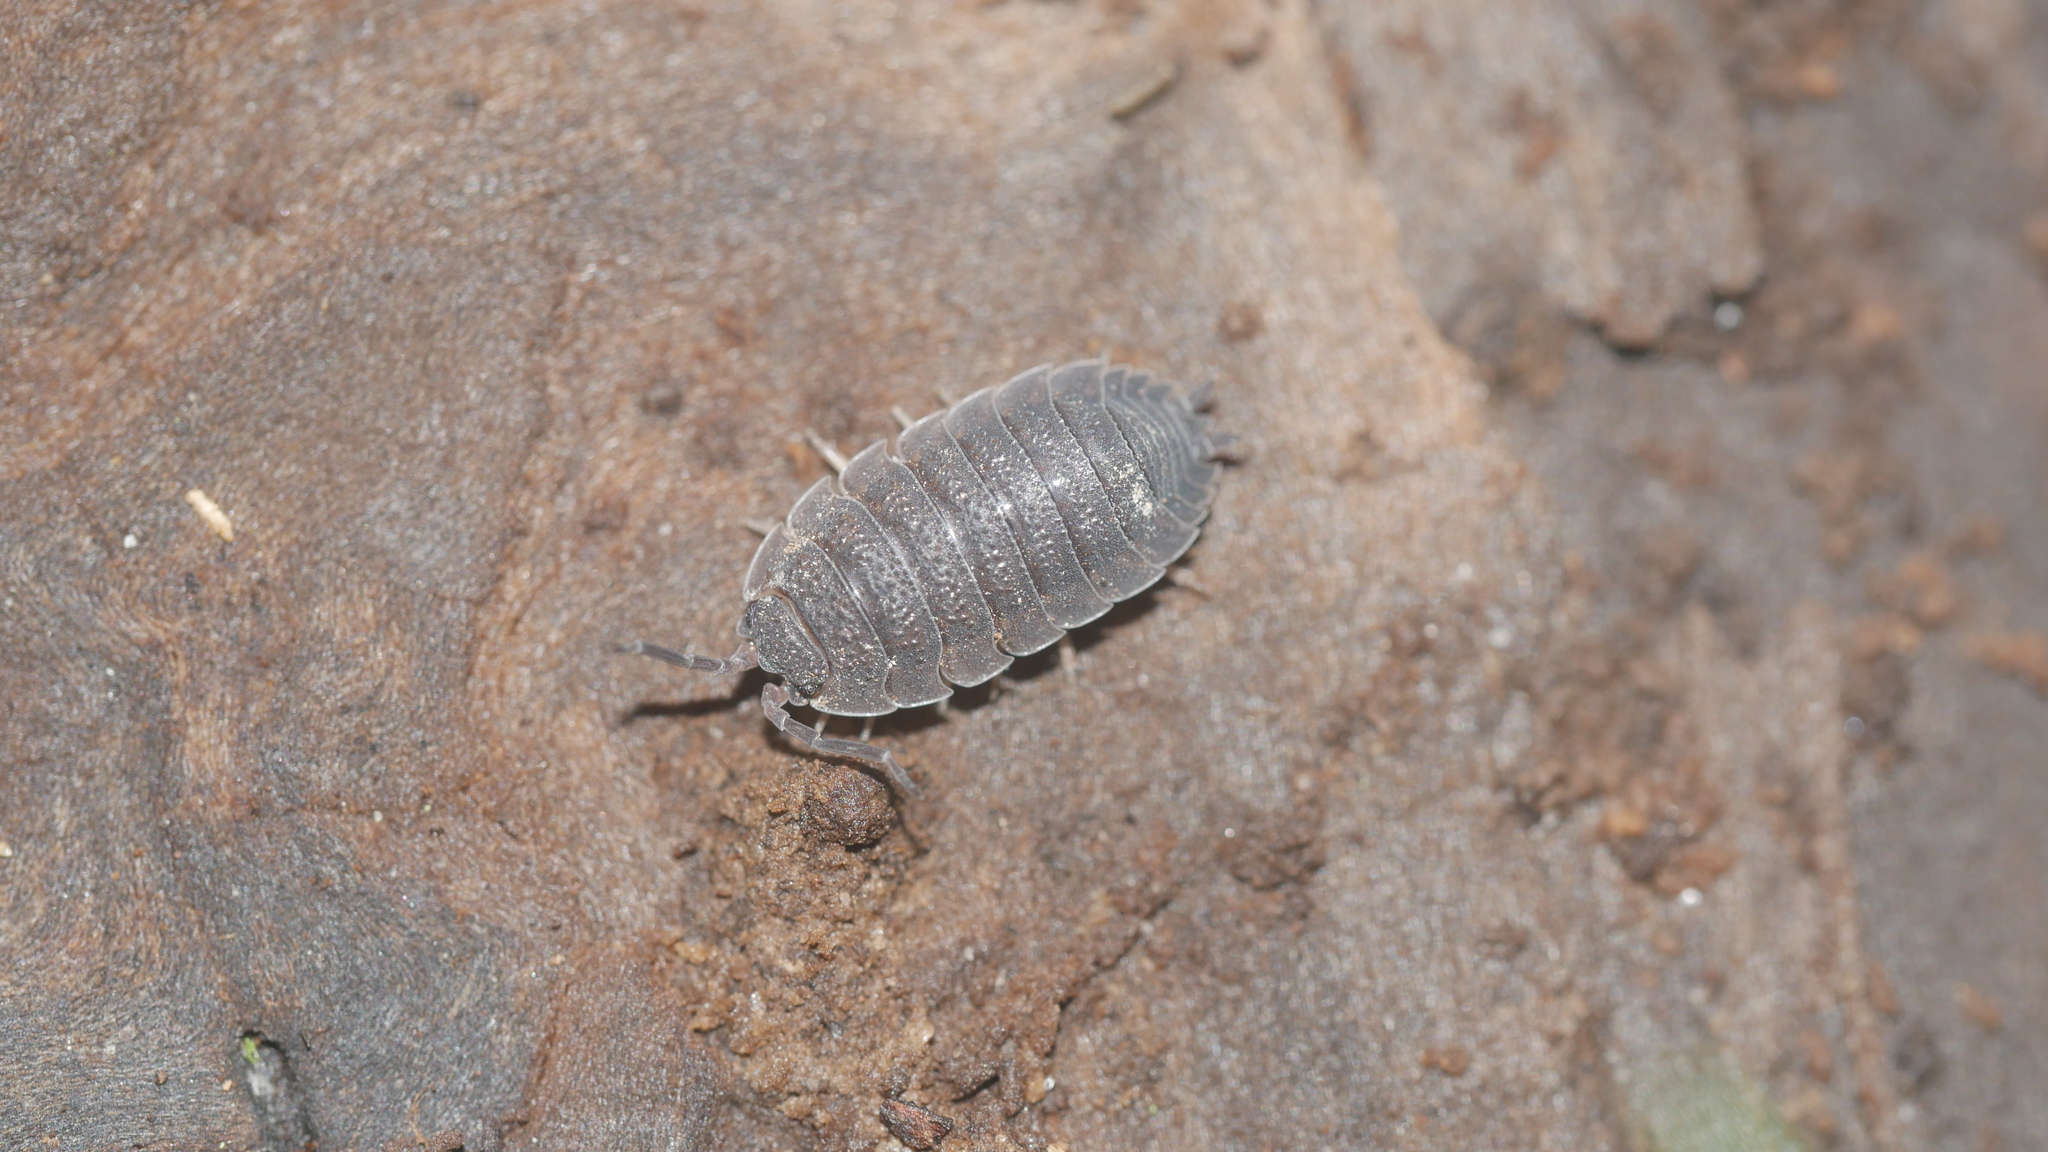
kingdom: Animalia
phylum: Arthropoda
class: Malacostraca
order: Isopoda
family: Porcellionidae
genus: Porcellio
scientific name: Porcellio scaber
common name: Common rough woodlouse
